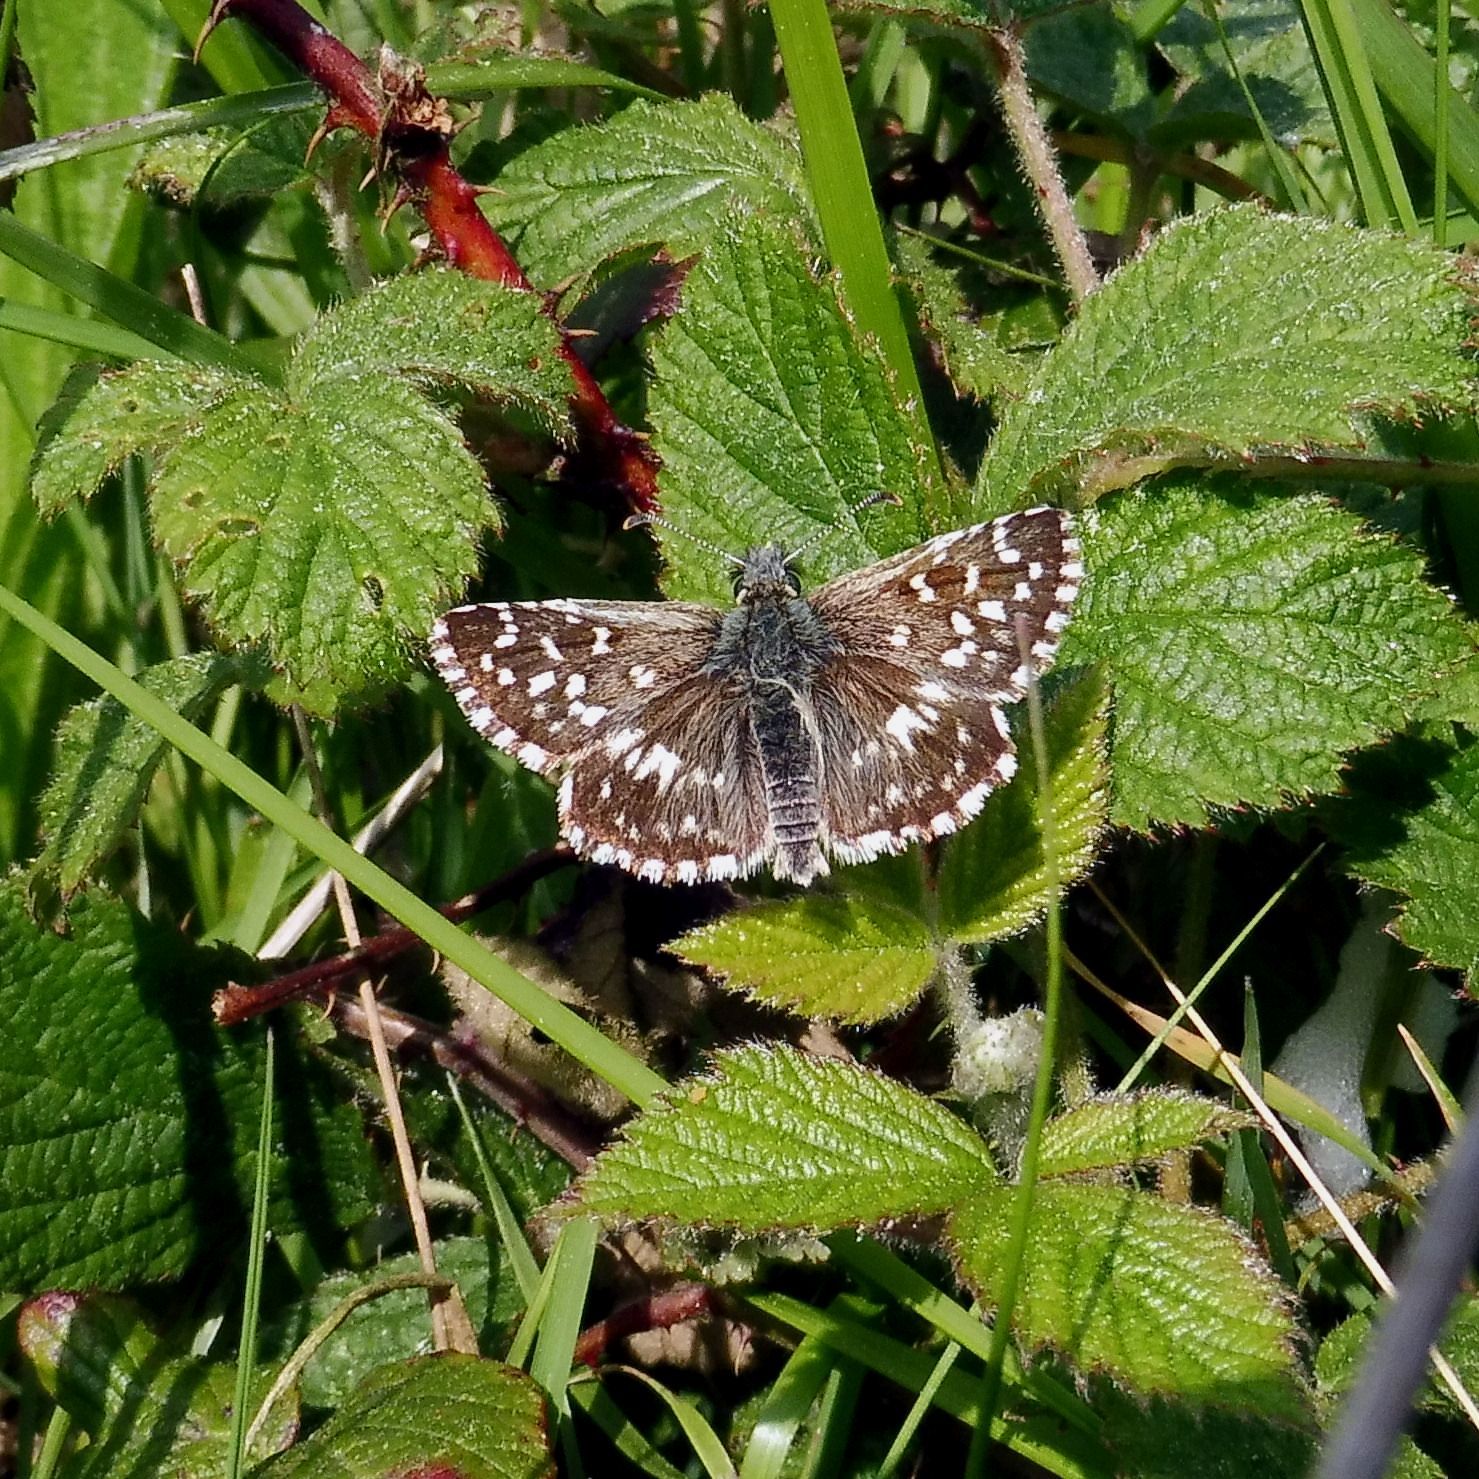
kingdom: Animalia
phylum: Arthropoda
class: Insecta
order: Lepidoptera
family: Hesperiidae
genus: Pyrgus
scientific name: Pyrgus malvae
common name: Grizzled skipper
